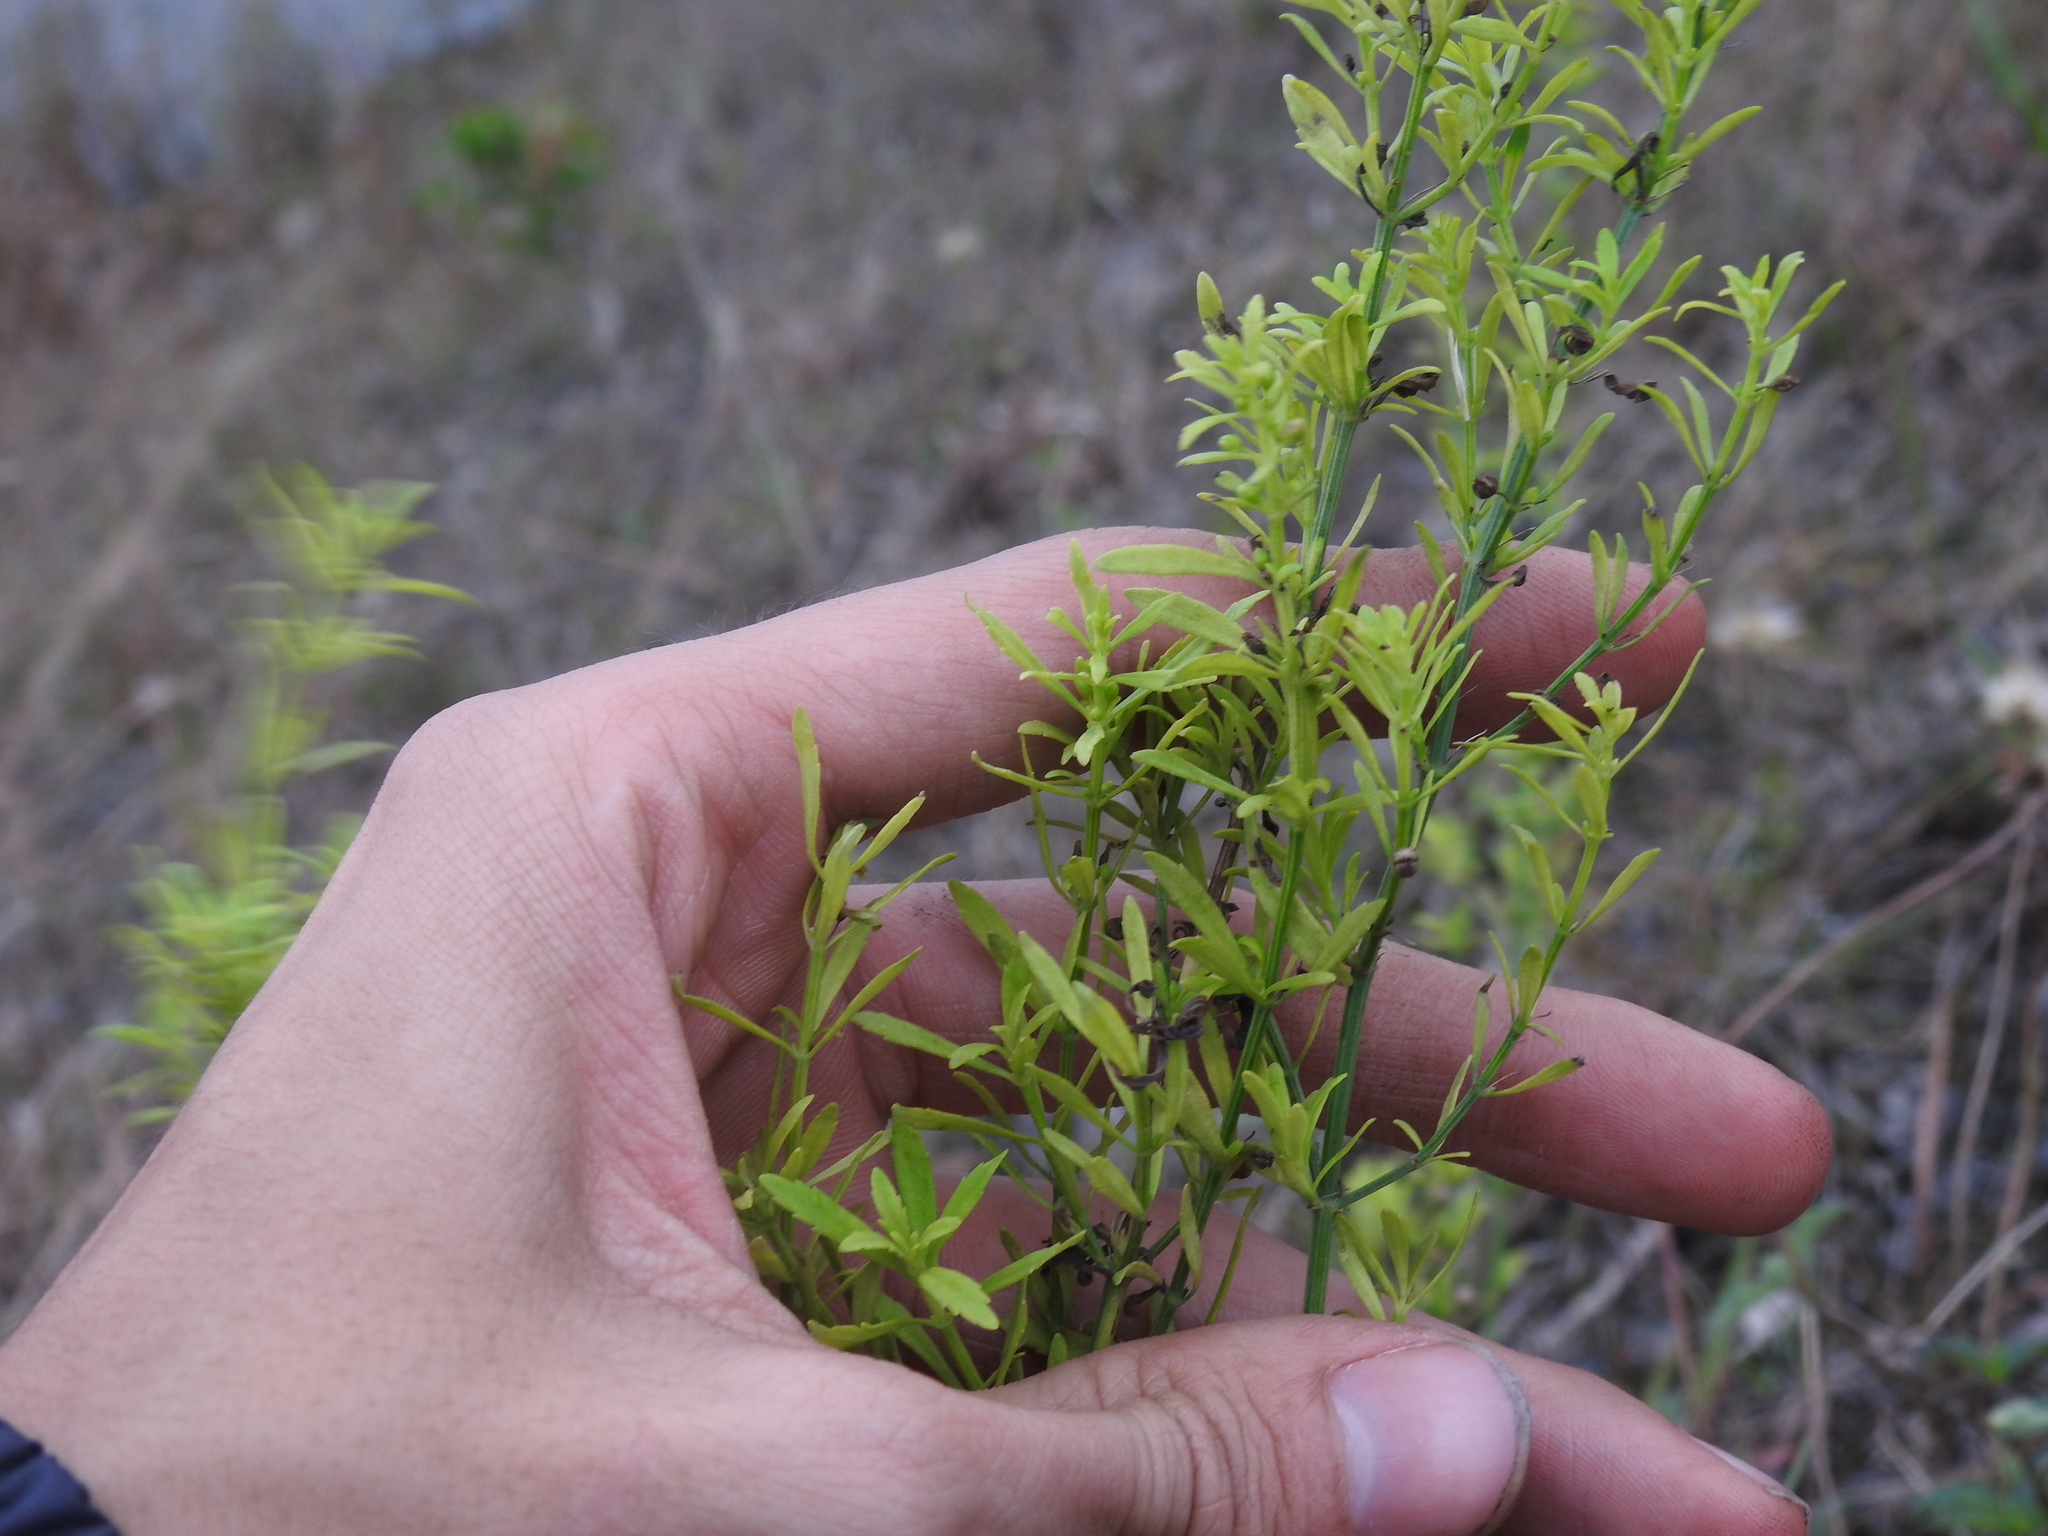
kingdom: Plantae
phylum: Tracheophyta
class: Magnoliopsida
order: Lamiales
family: Plantaginaceae
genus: Scoparia
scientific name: Scoparia dulcis
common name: Scoparia-weed
